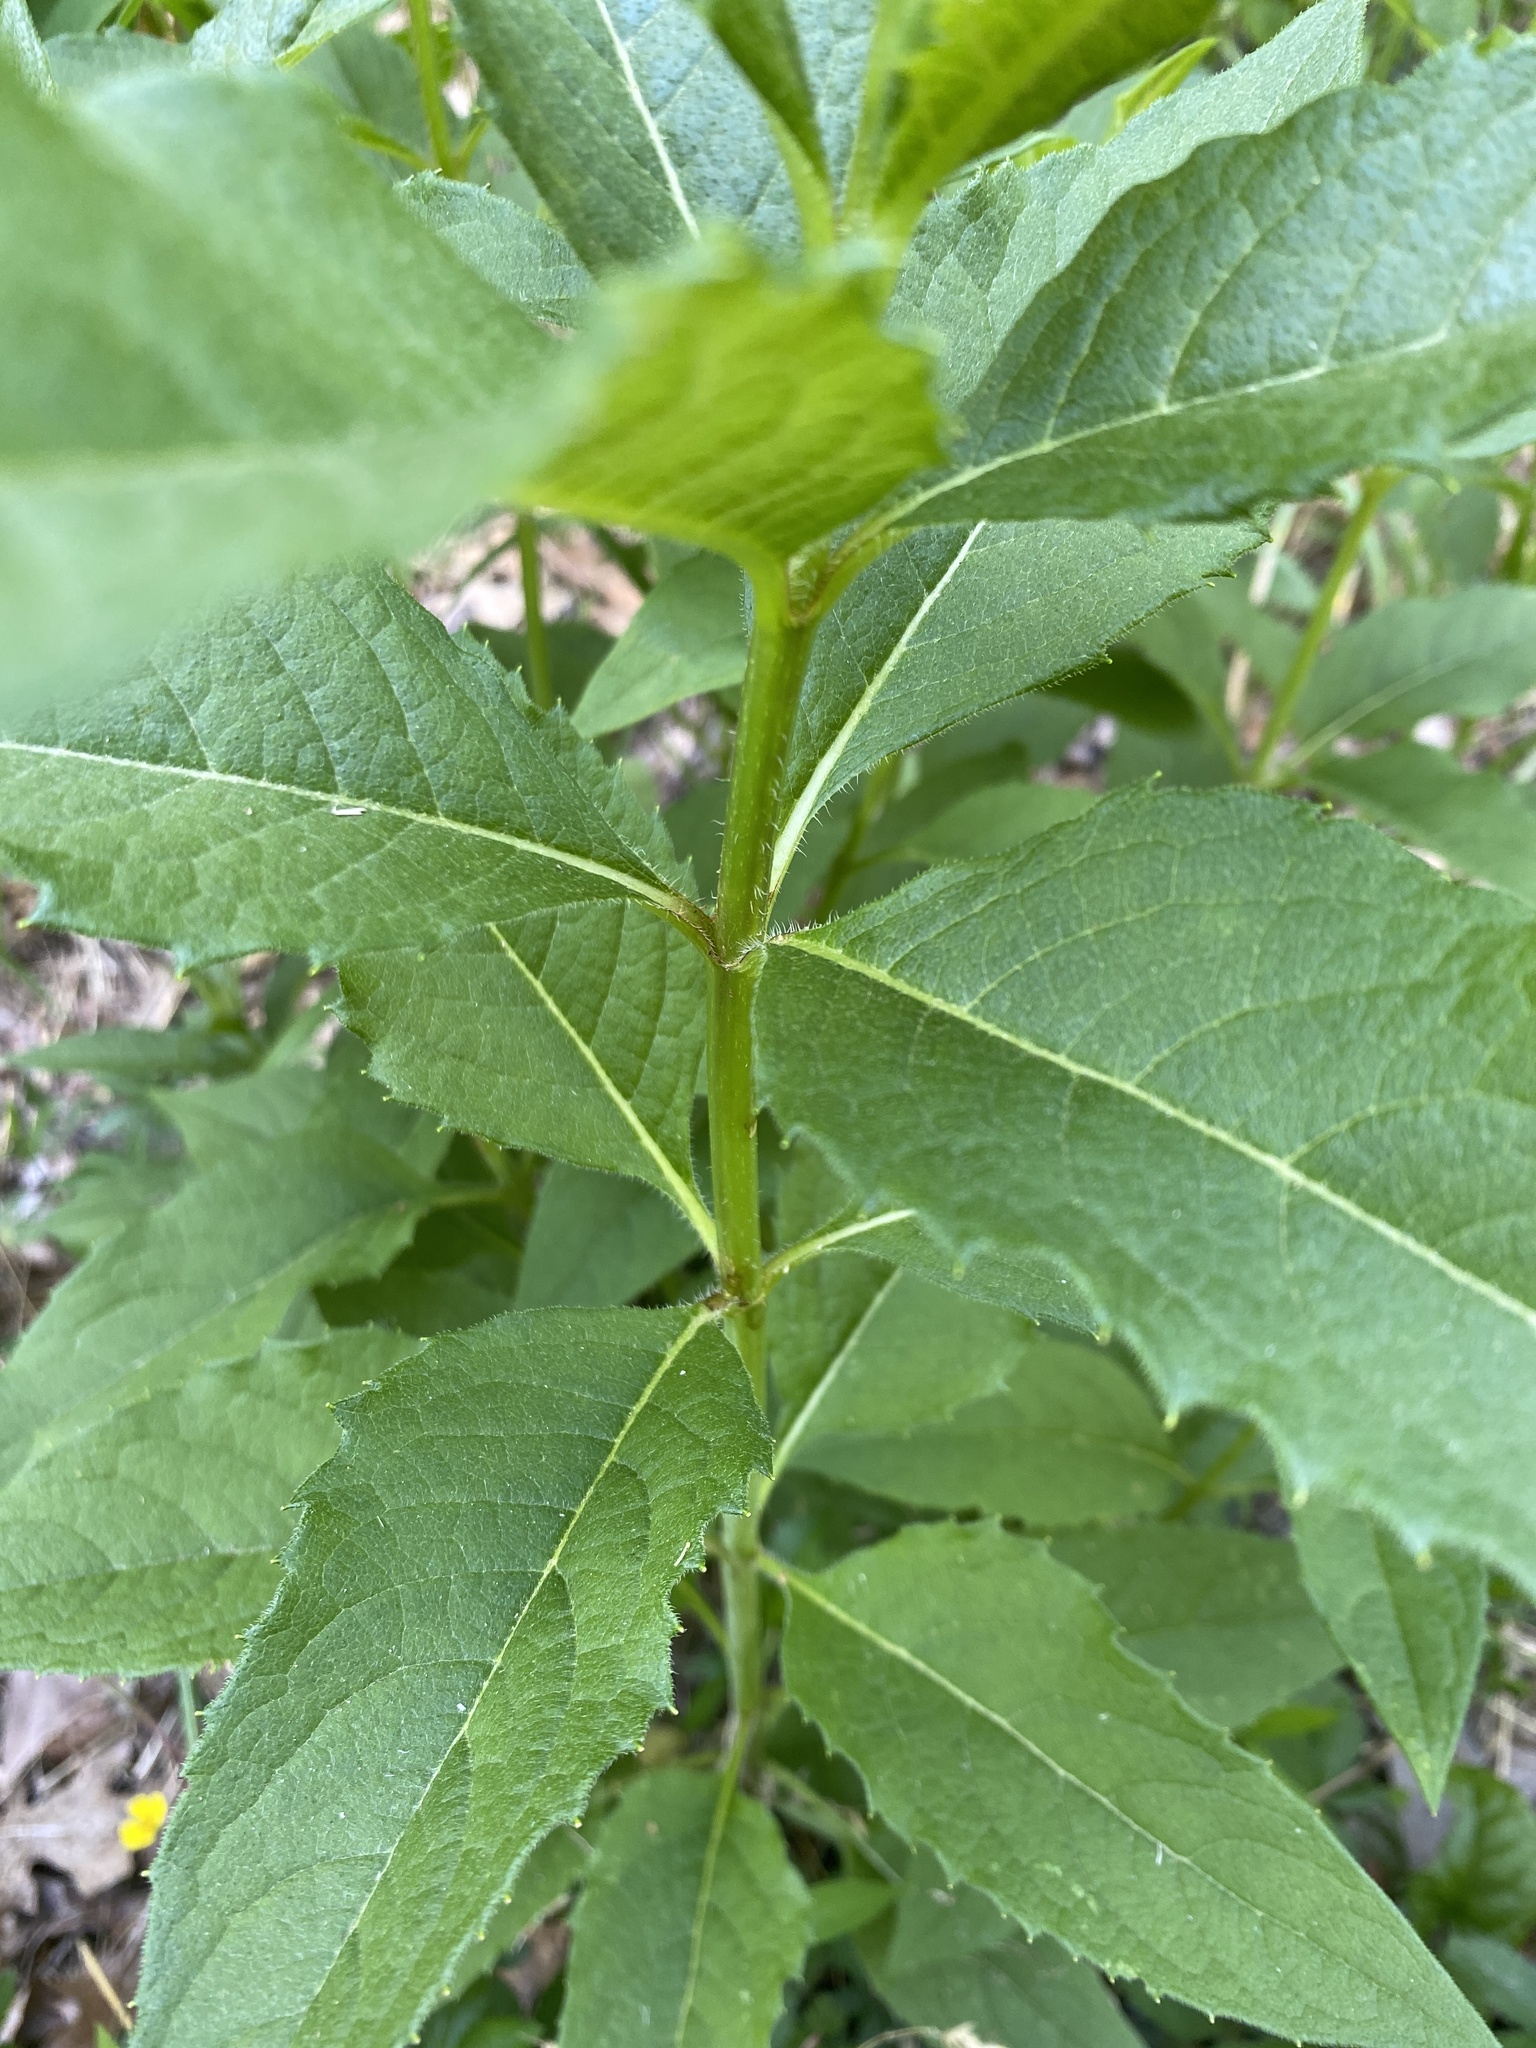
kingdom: Plantae
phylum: Tracheophyta
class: Magnoliopsida
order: Asterales
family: Asteraceae
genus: Silphium
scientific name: Silphium asteriscus
